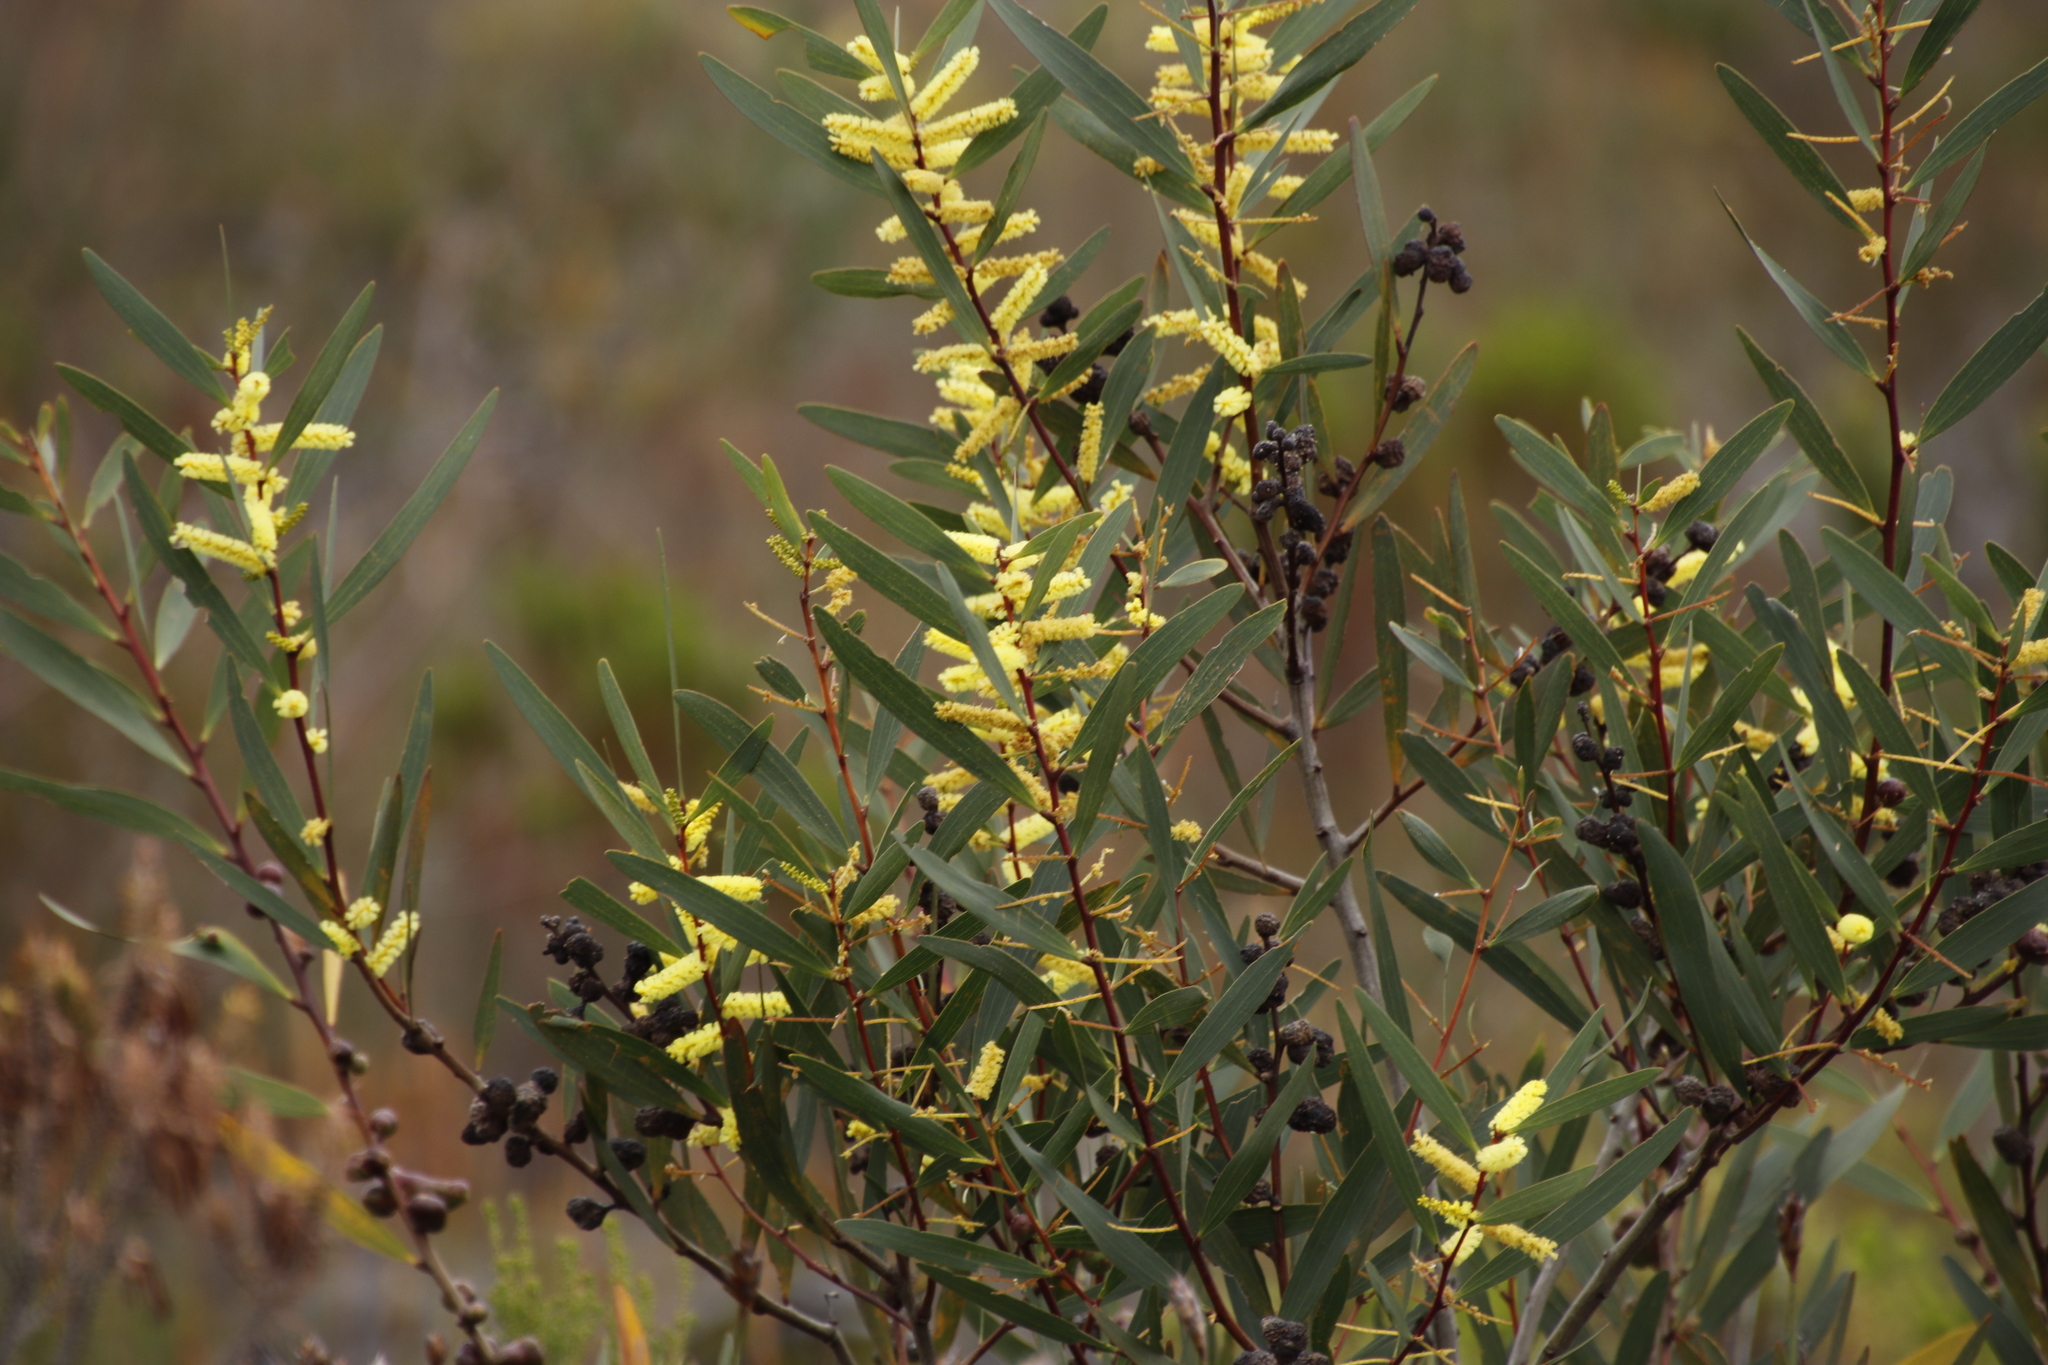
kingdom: Plantae
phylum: Tracheophyta
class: Magnoliopsida
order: Fabales
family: Fabaceae
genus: Acacia
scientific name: Acacia longifolia
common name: Sydney golden wattle
